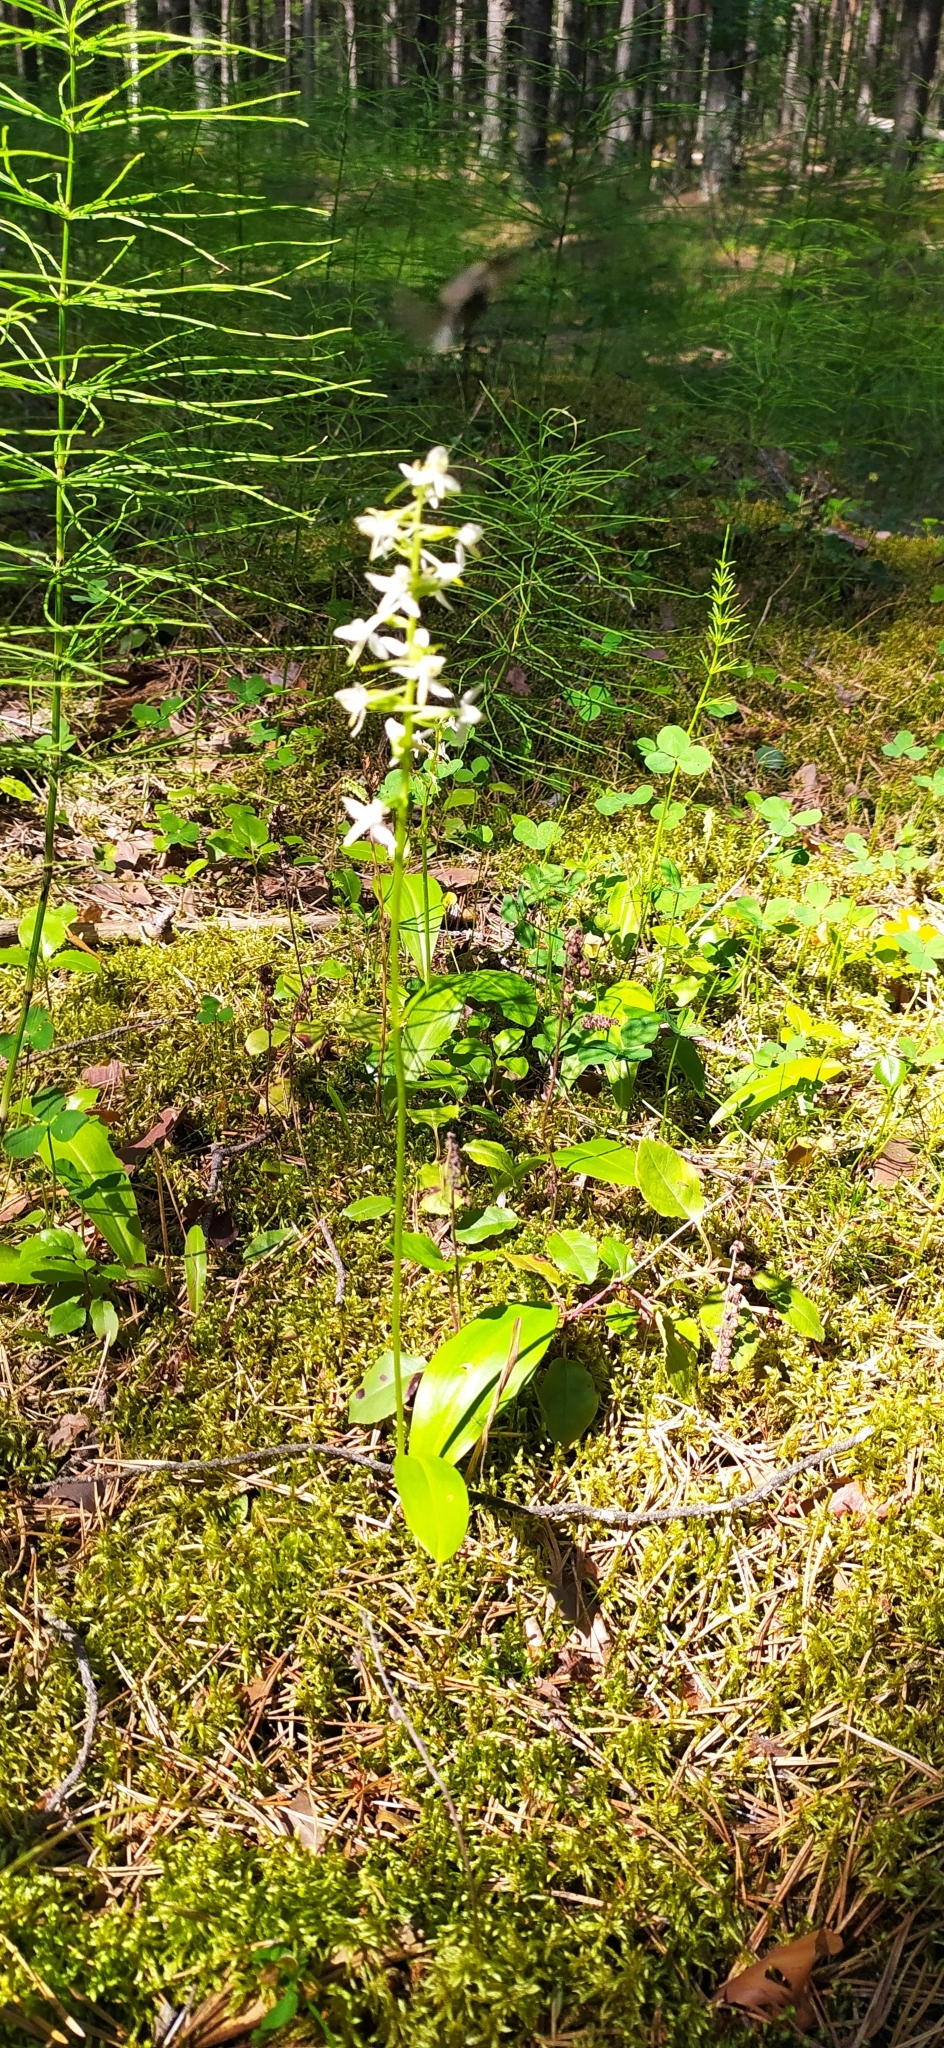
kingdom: Plantae
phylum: Tracheophyta
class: Liliopsida
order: Asparagales
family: Orchidaceae
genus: Platanthera
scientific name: Platanthera bifolia
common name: Lesser butterfly-orchid
